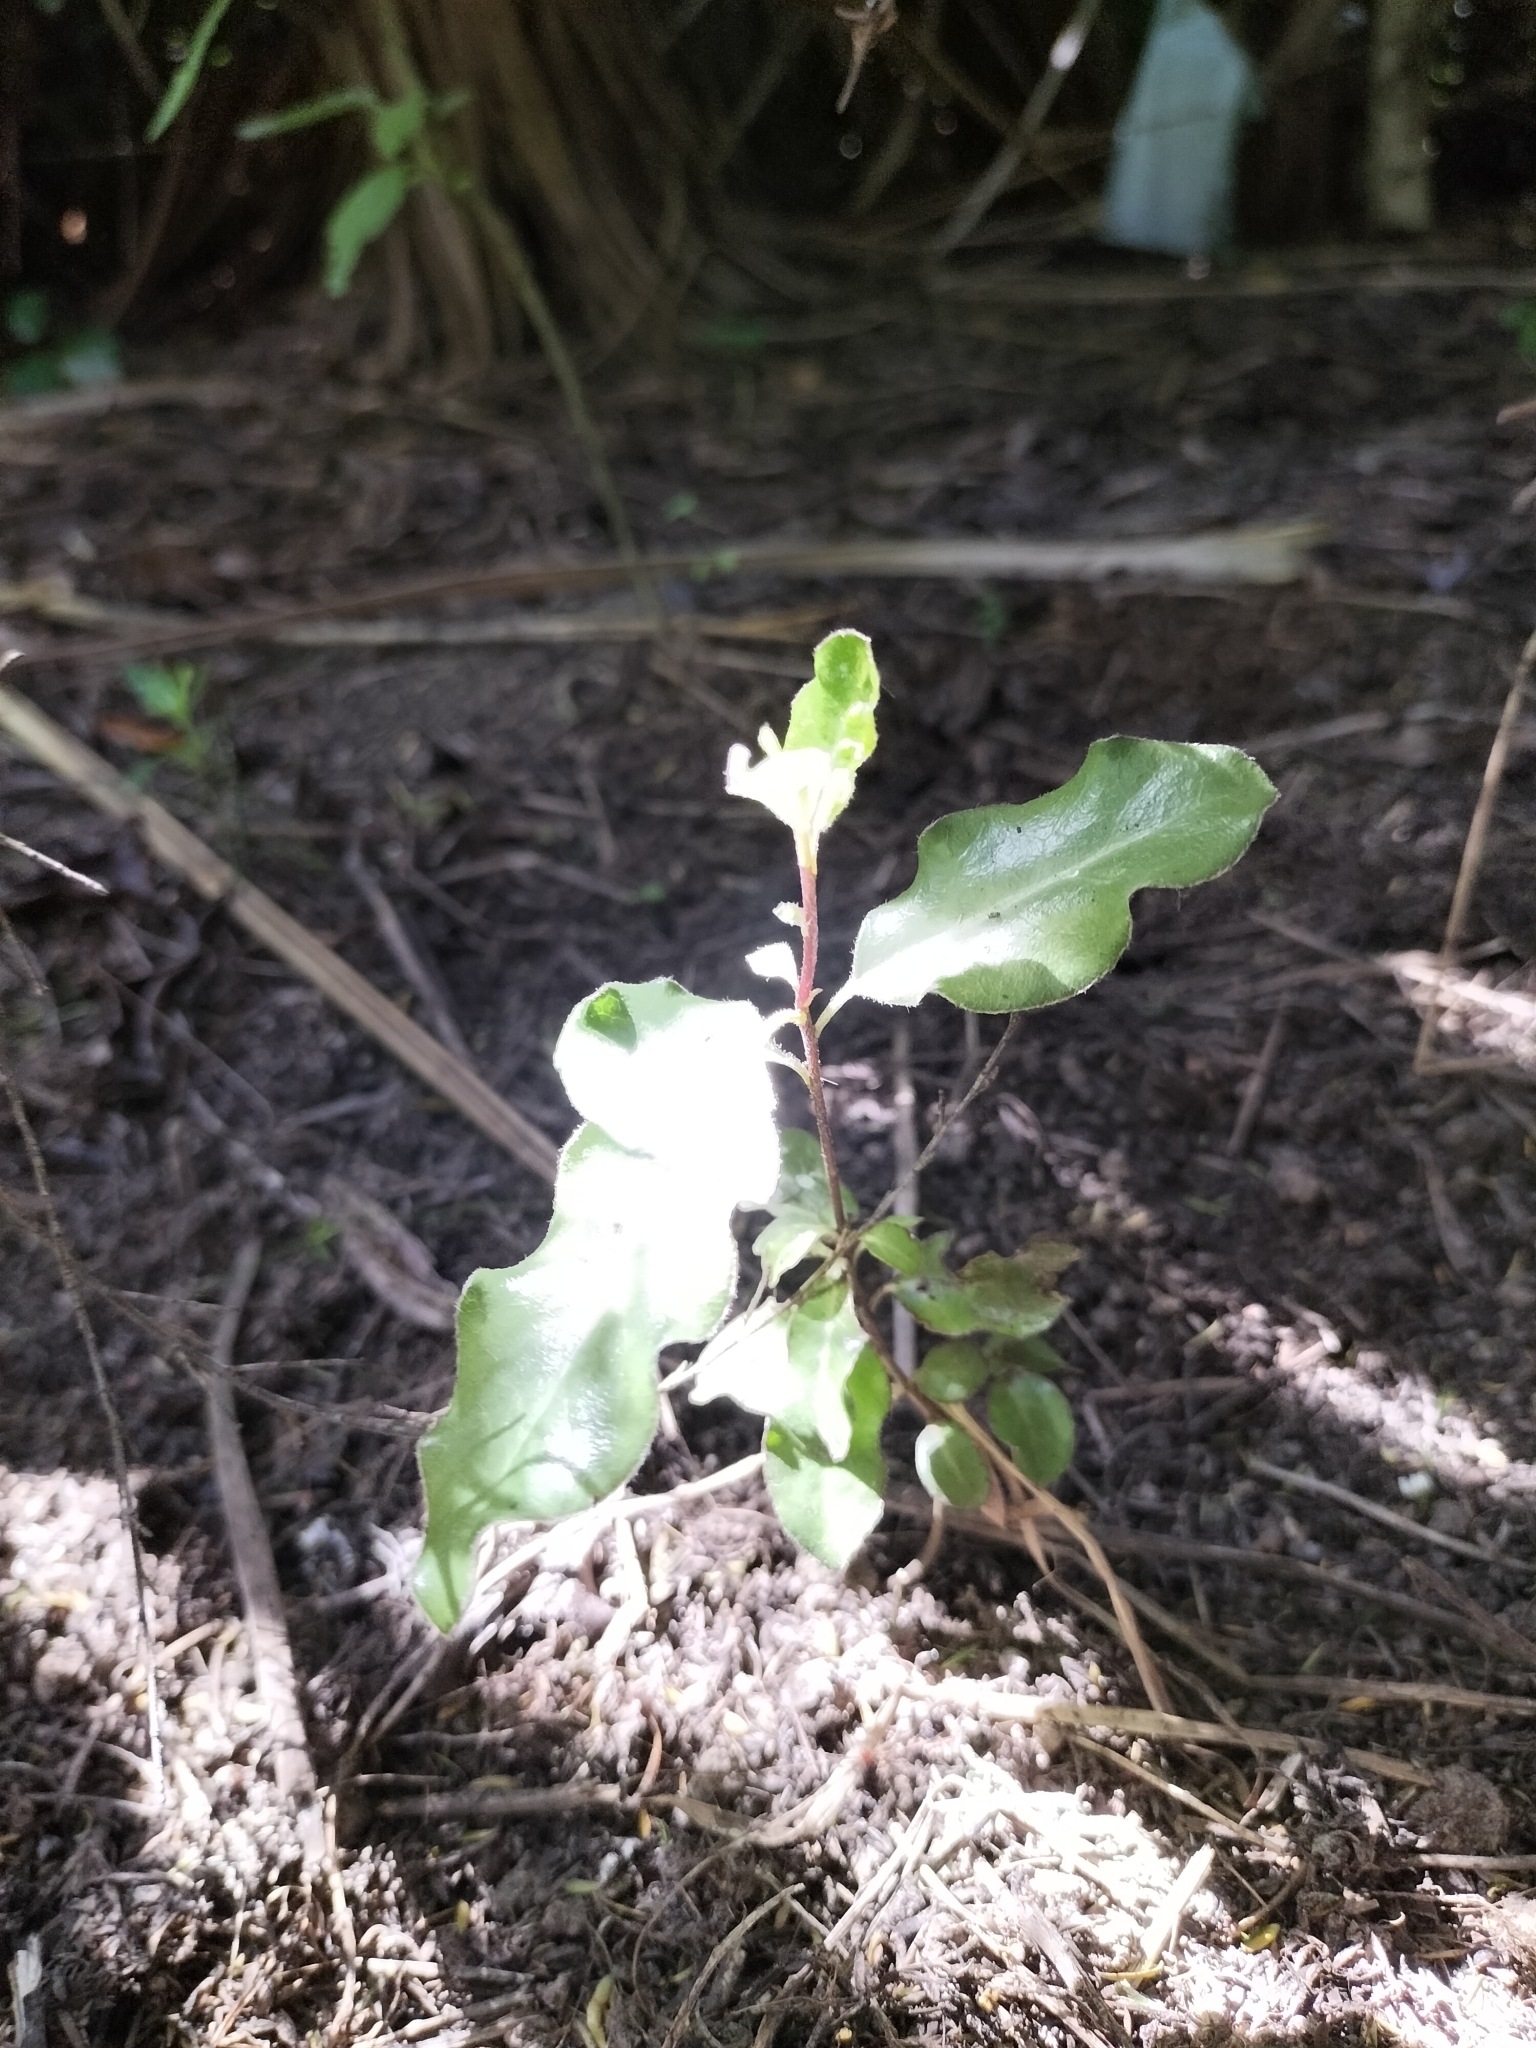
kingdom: Plantae
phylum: Tracheophyta
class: Magnoliopsida
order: Apiales
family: Pittosporaceae
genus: Pittosporum
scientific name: Pittosporum tenuifolium
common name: Kohuhu
